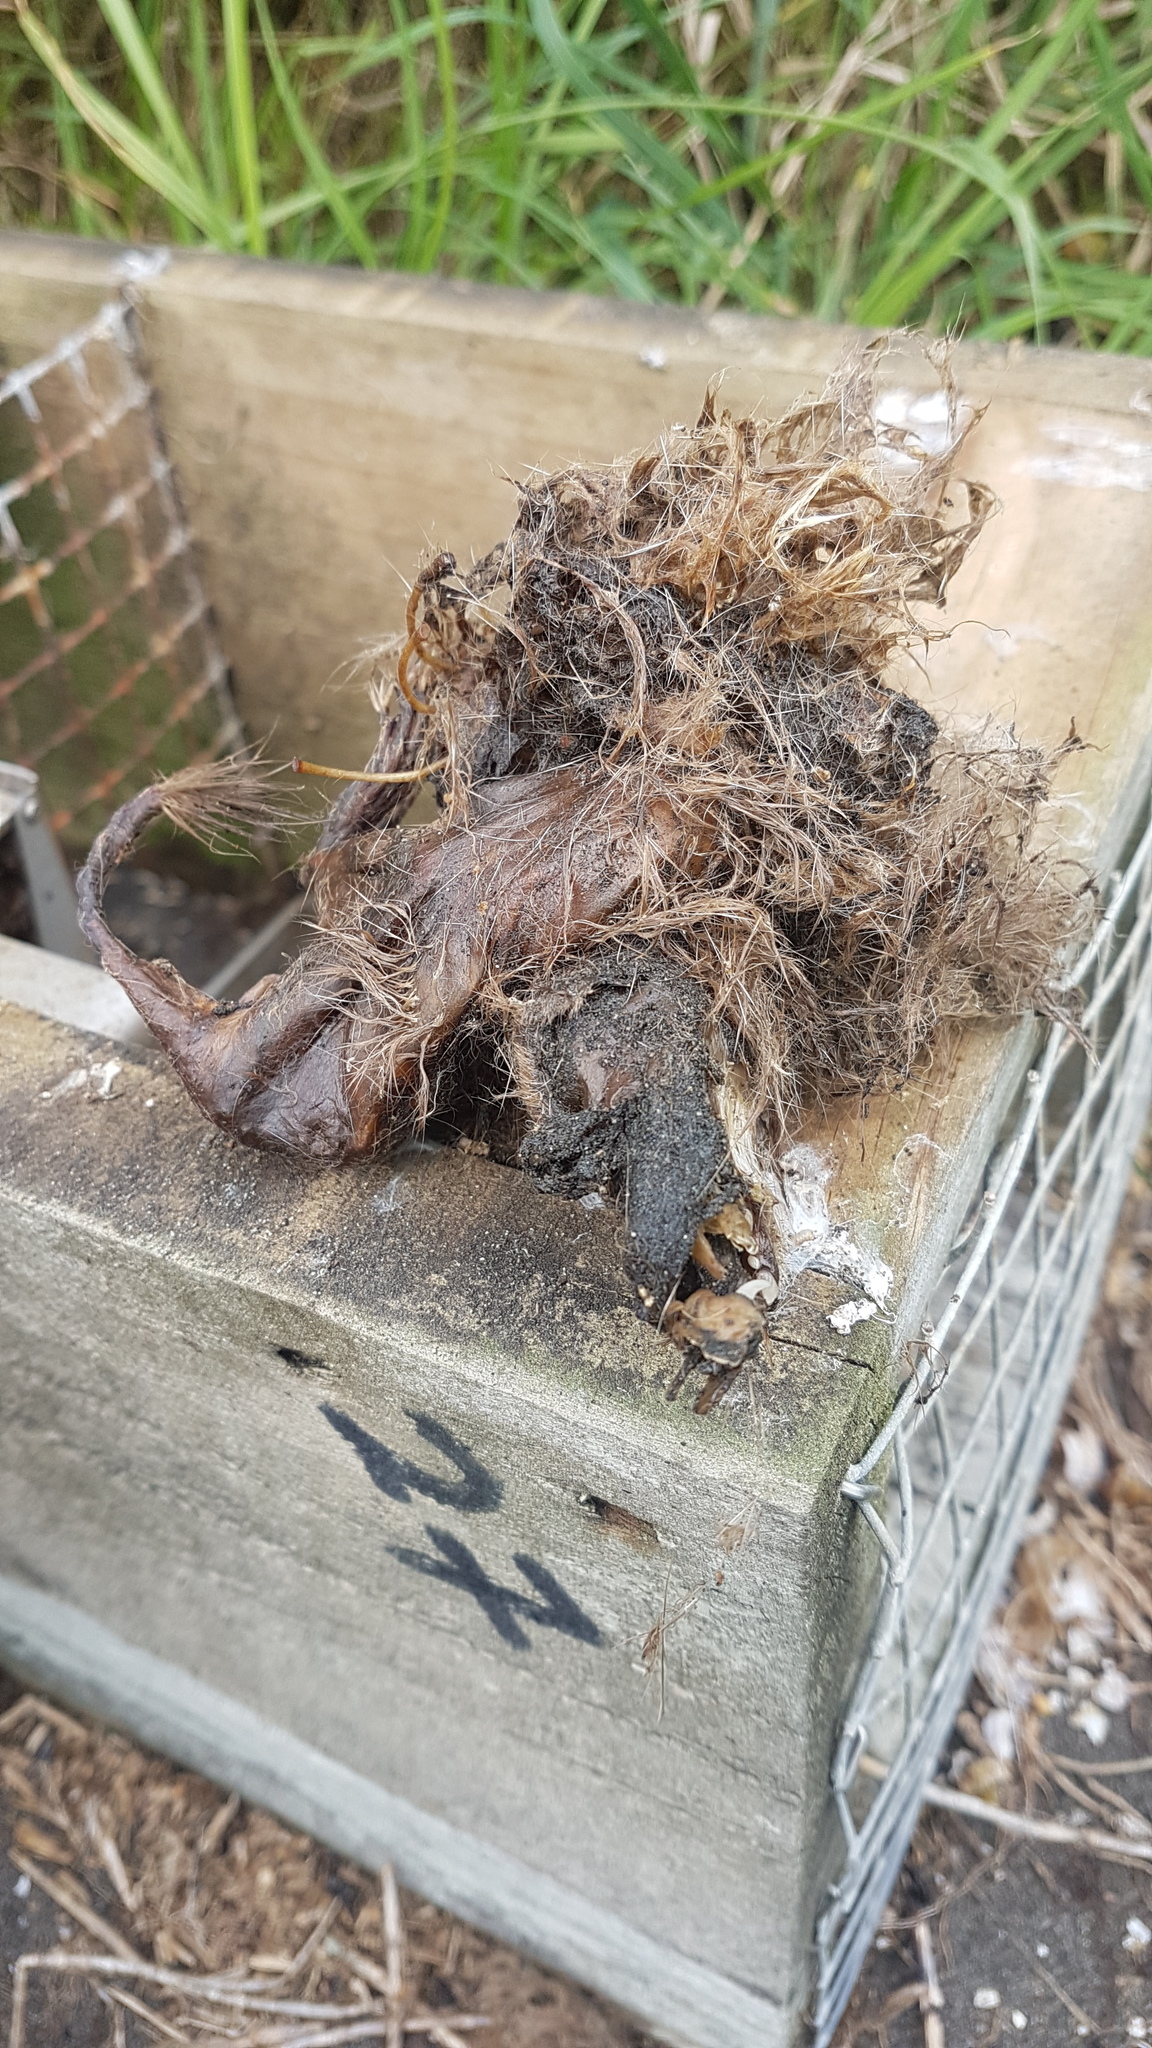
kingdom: Animalia
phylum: Chordata
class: Mammalia
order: Carnivora
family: Mustelidae
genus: Mustela
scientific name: Mustela nivalis
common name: Least weasel
